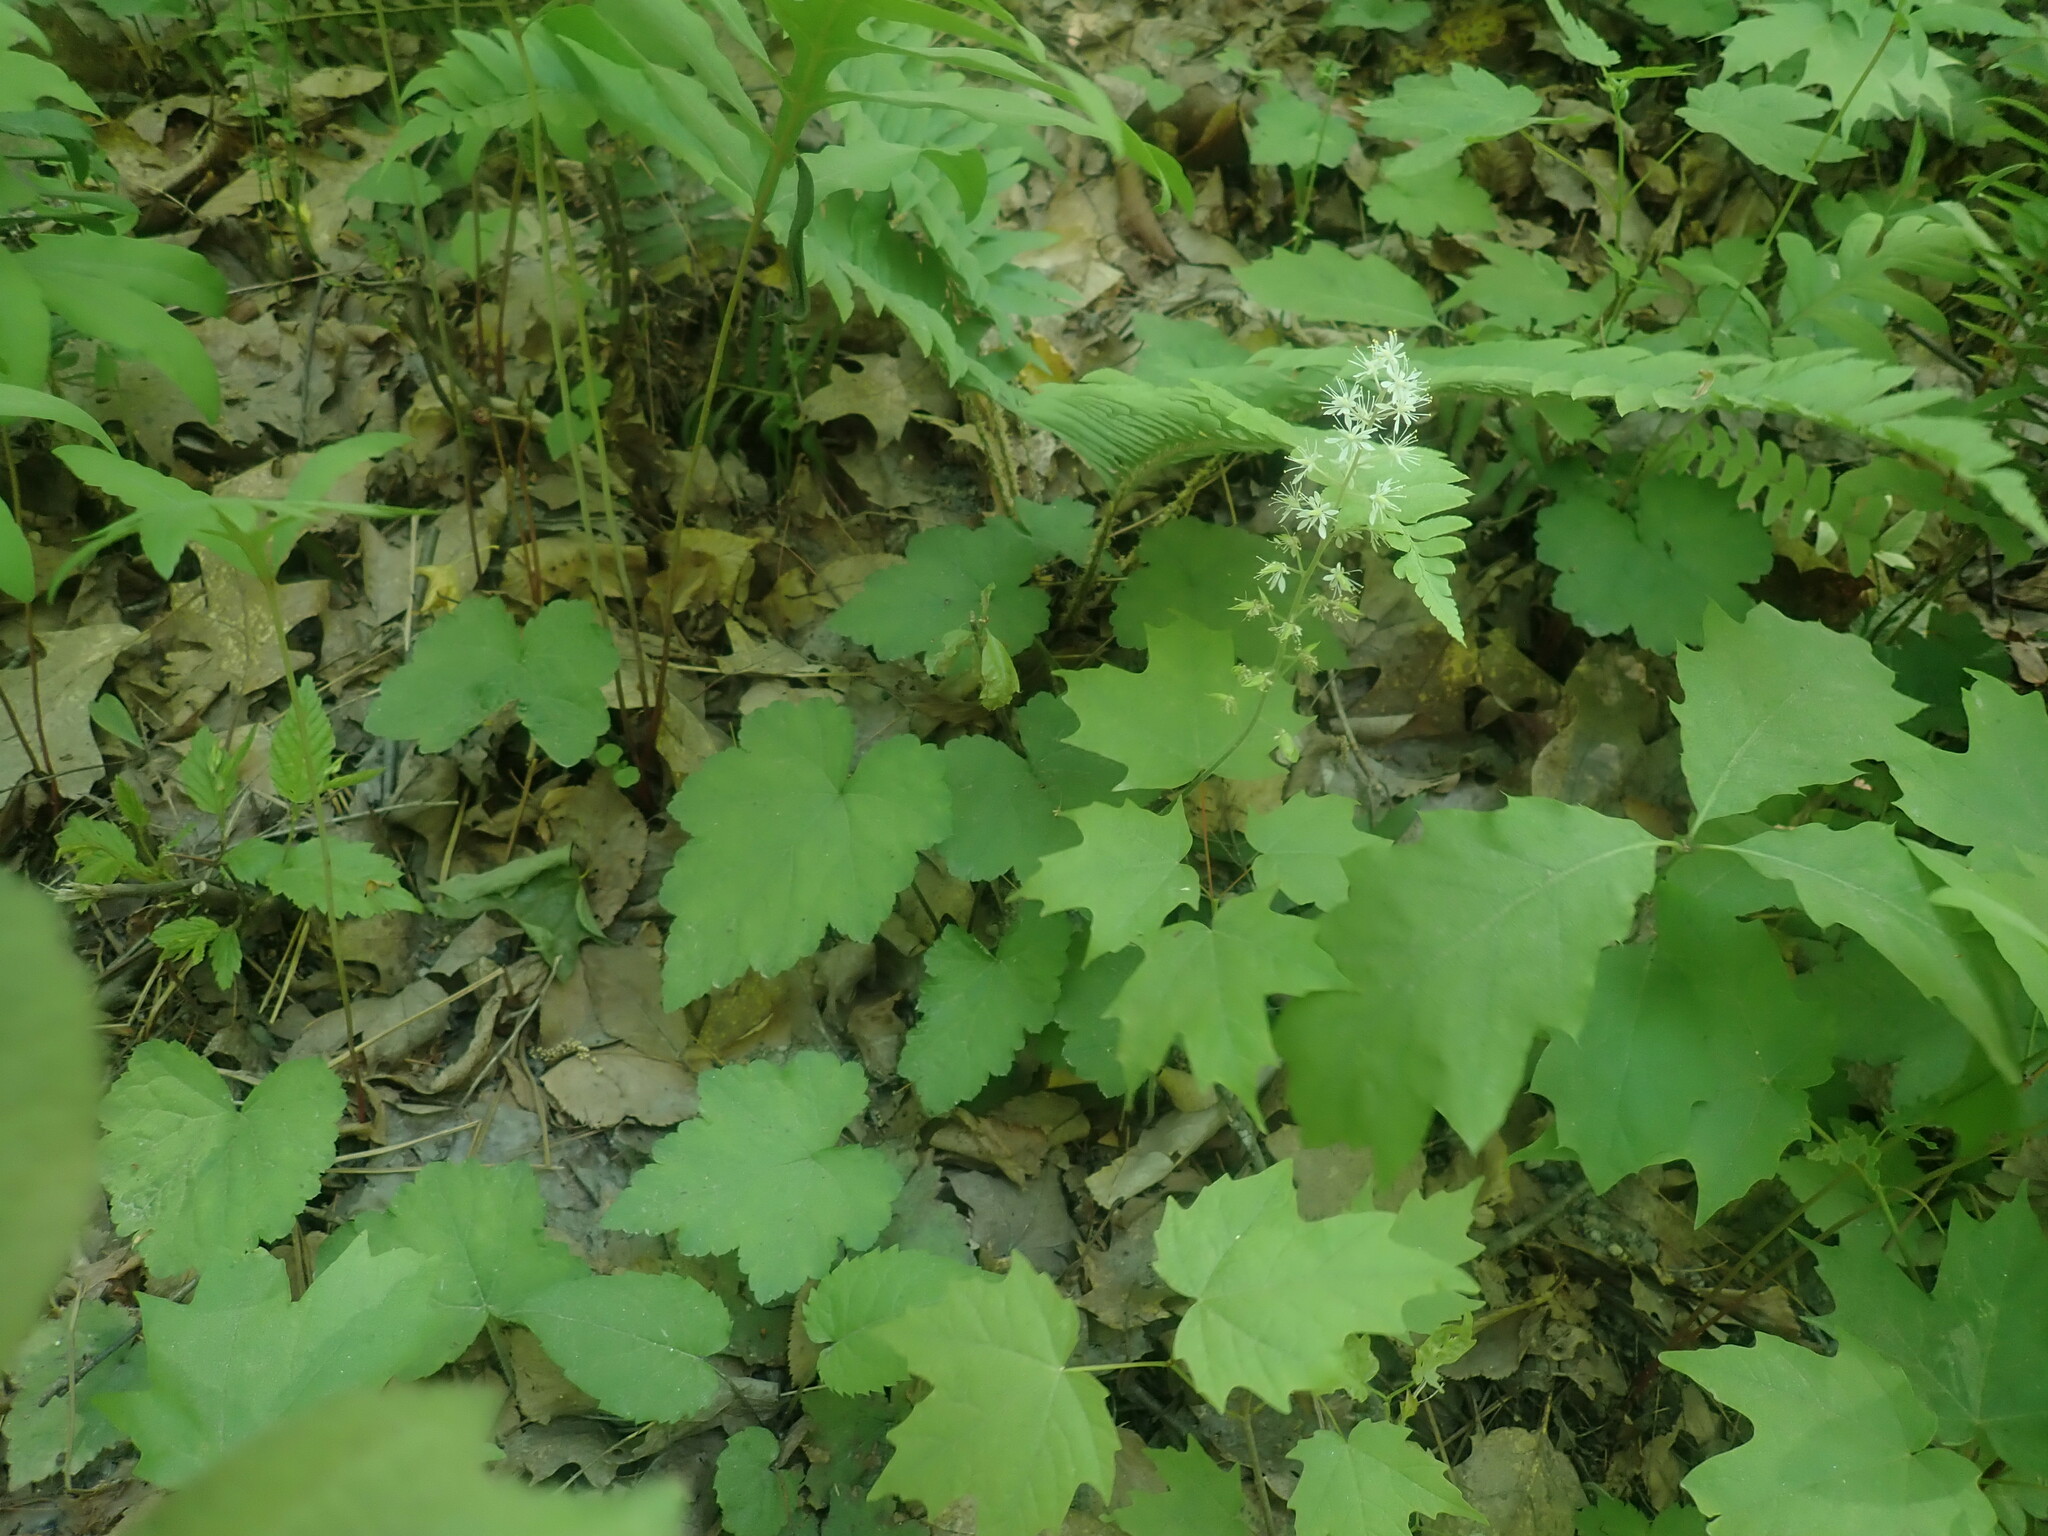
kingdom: Plantae
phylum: Tracheophyta
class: Magnoliopsida
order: Saxifragales
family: Saxifragaceae
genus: Tiarella
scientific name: Tiarella stolonifera
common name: Stoloniferous foamflower
